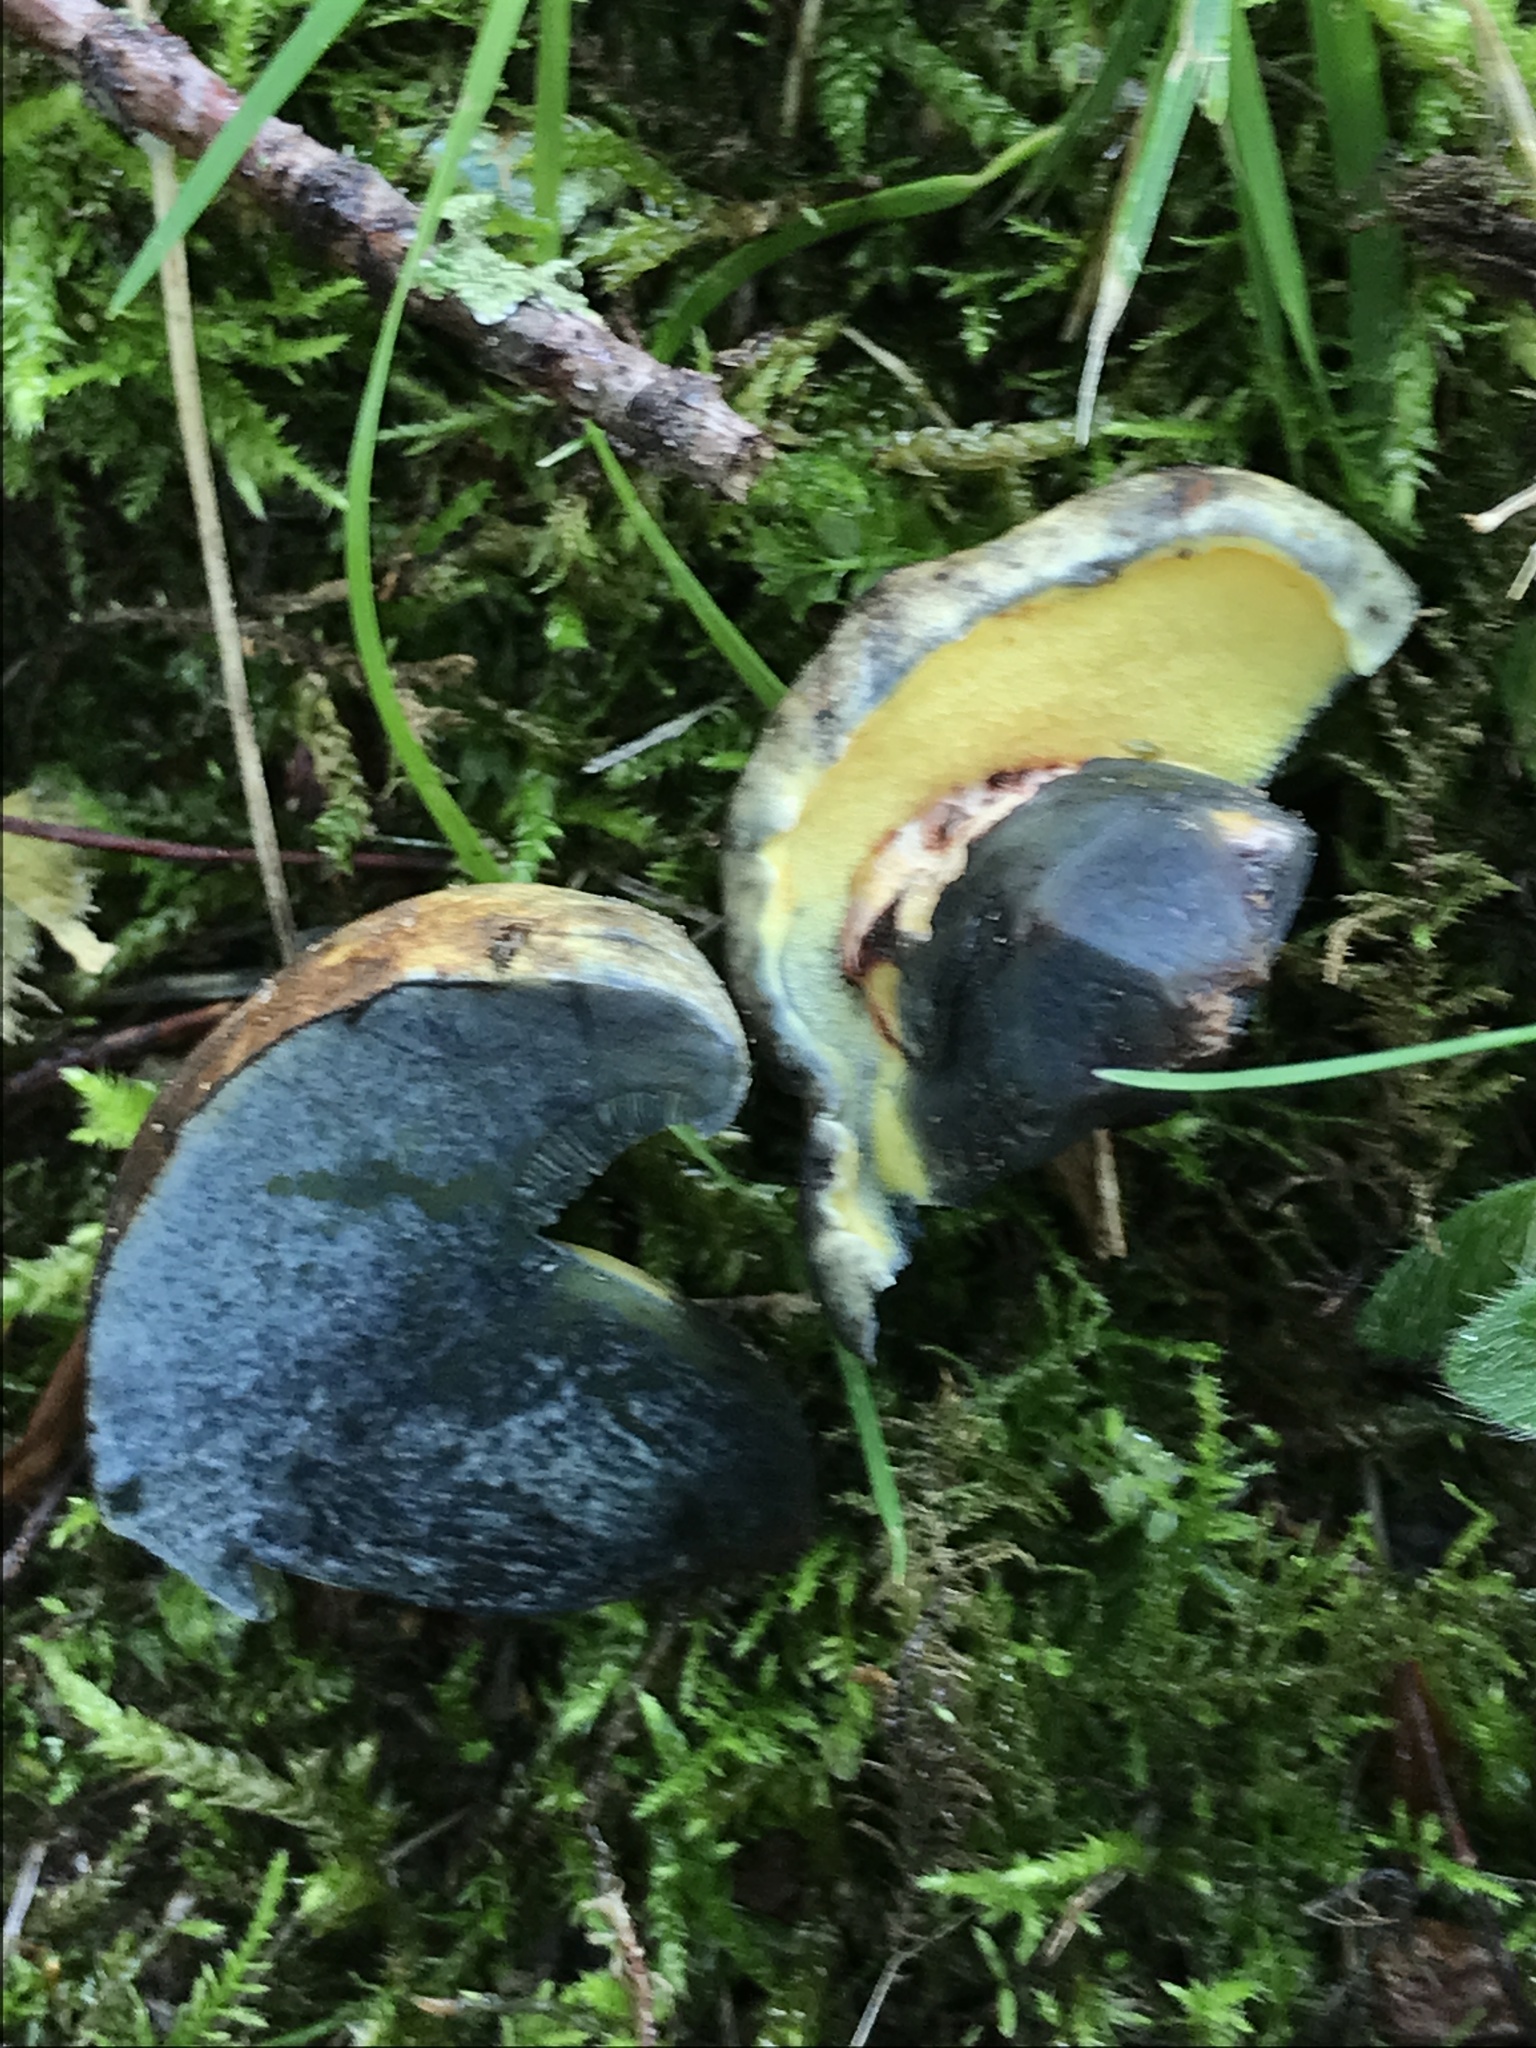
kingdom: Fungi
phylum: Basidiomycota
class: Agaricomycetes
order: Boletales
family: Boletaceae
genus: Cyanoboletus
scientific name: Cyanoboletus pulverulentus
